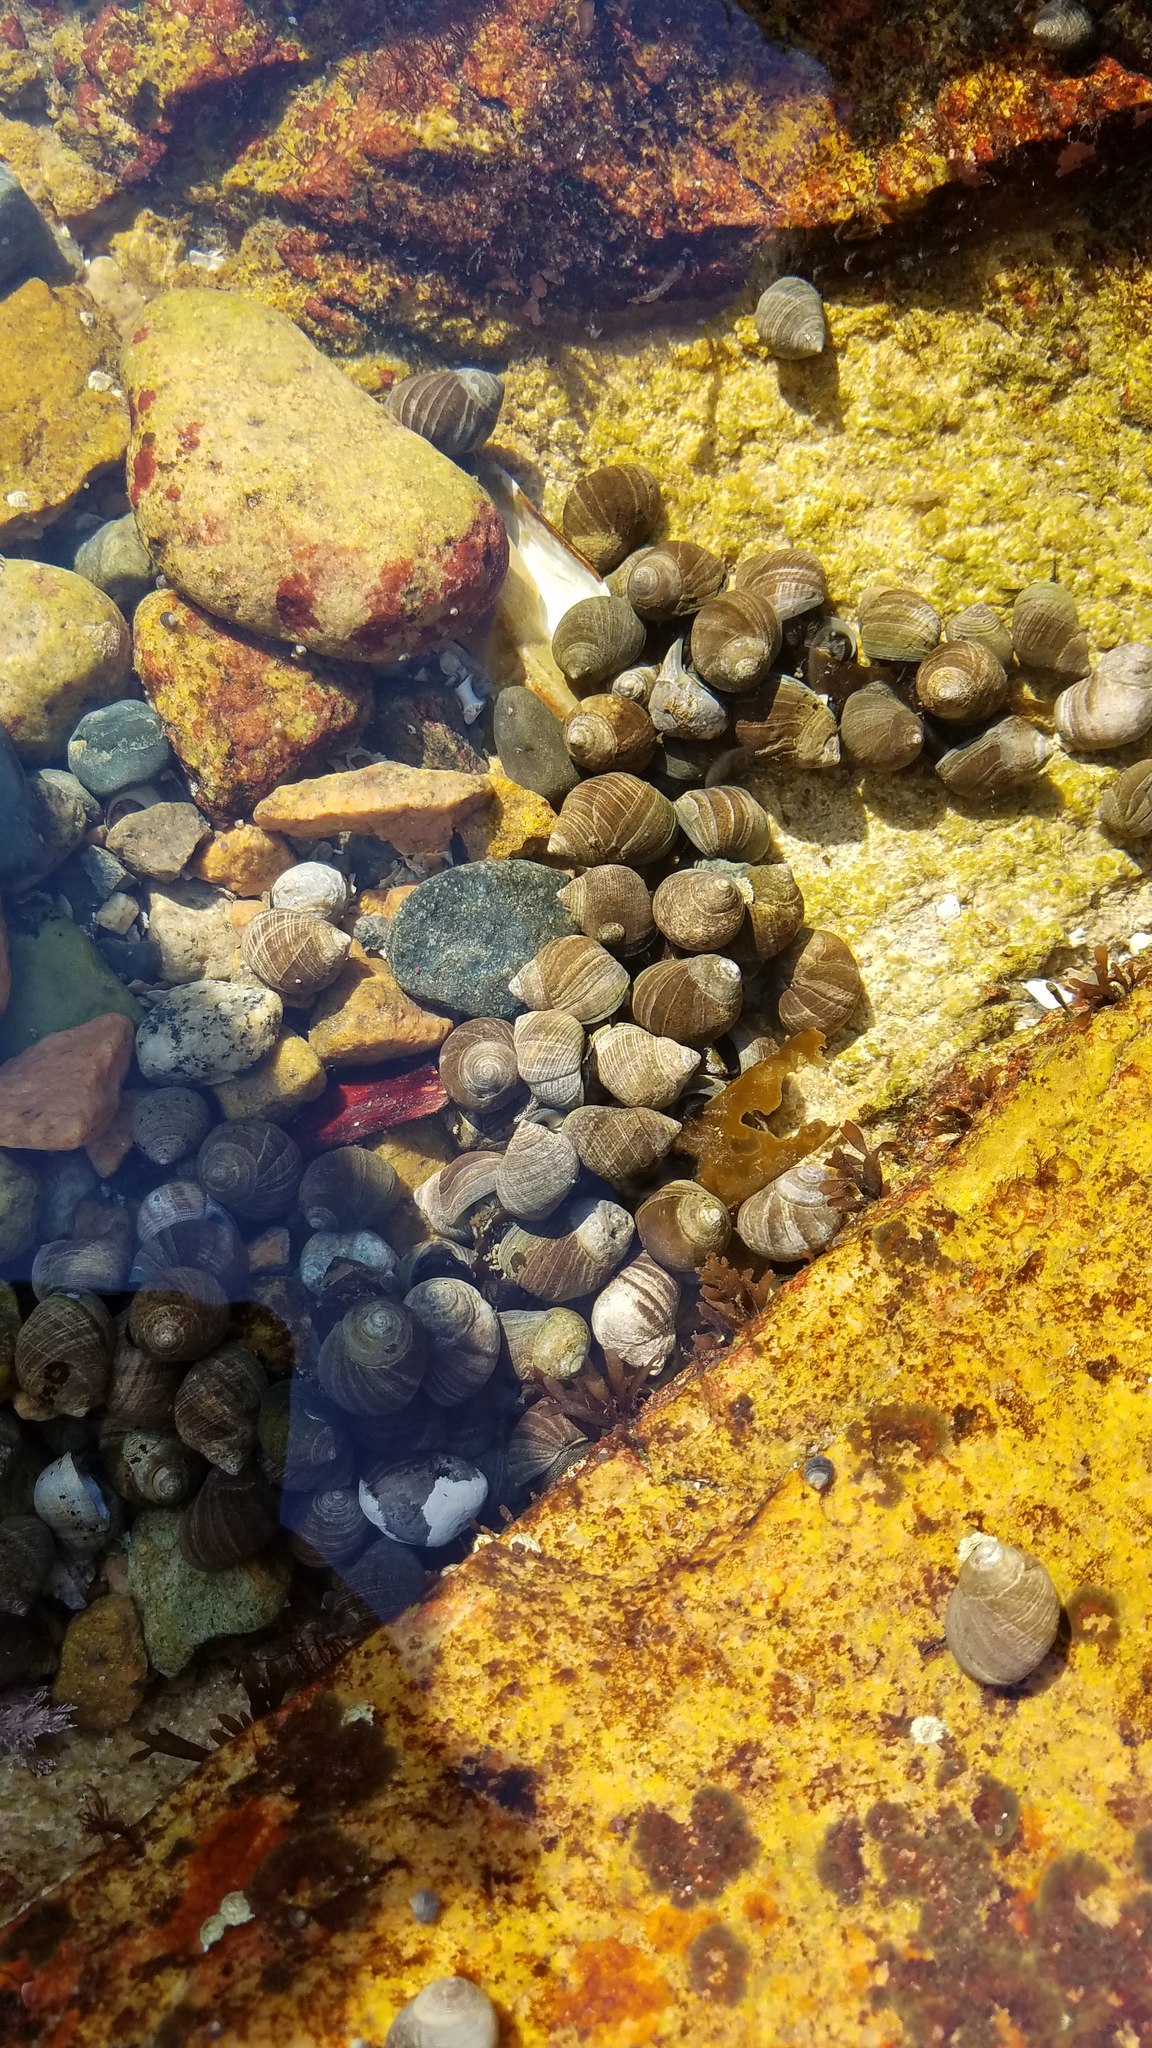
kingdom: Animalia
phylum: Mollusca
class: Gastropoda
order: Littorinimorpha
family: Littorinidae
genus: Littorina
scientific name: Littorina littorea
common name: Common periwinkle
